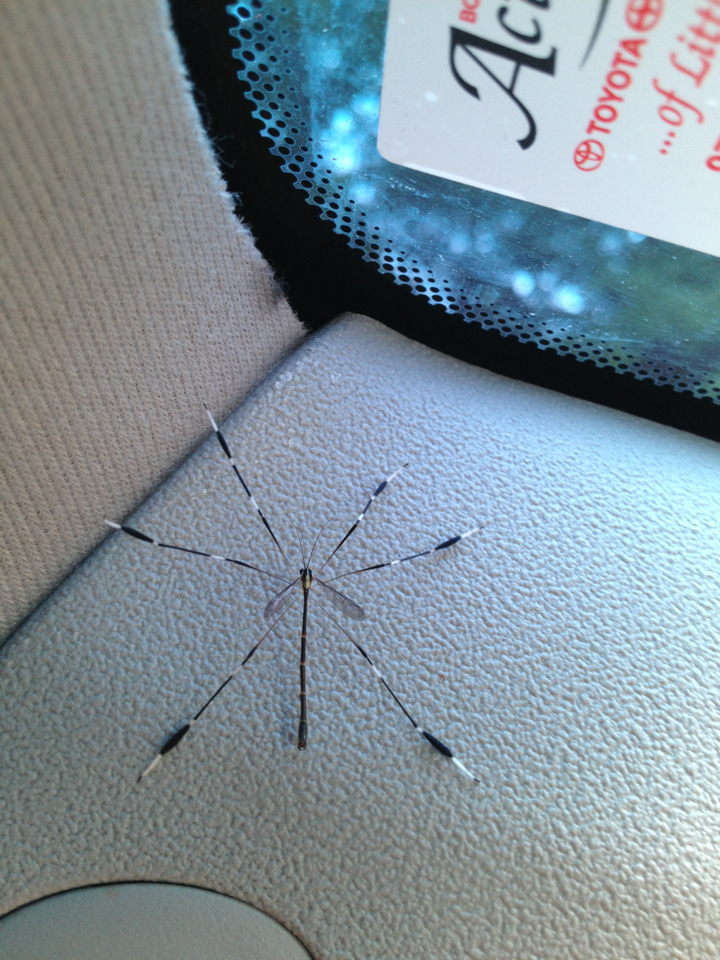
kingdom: Animalia
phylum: Arthropoda
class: Insecta
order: Diptera
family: Ptychopteridae
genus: Bittacomorpha
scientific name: Bittacomorpha clavipes
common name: Eastern phantom crane fly
